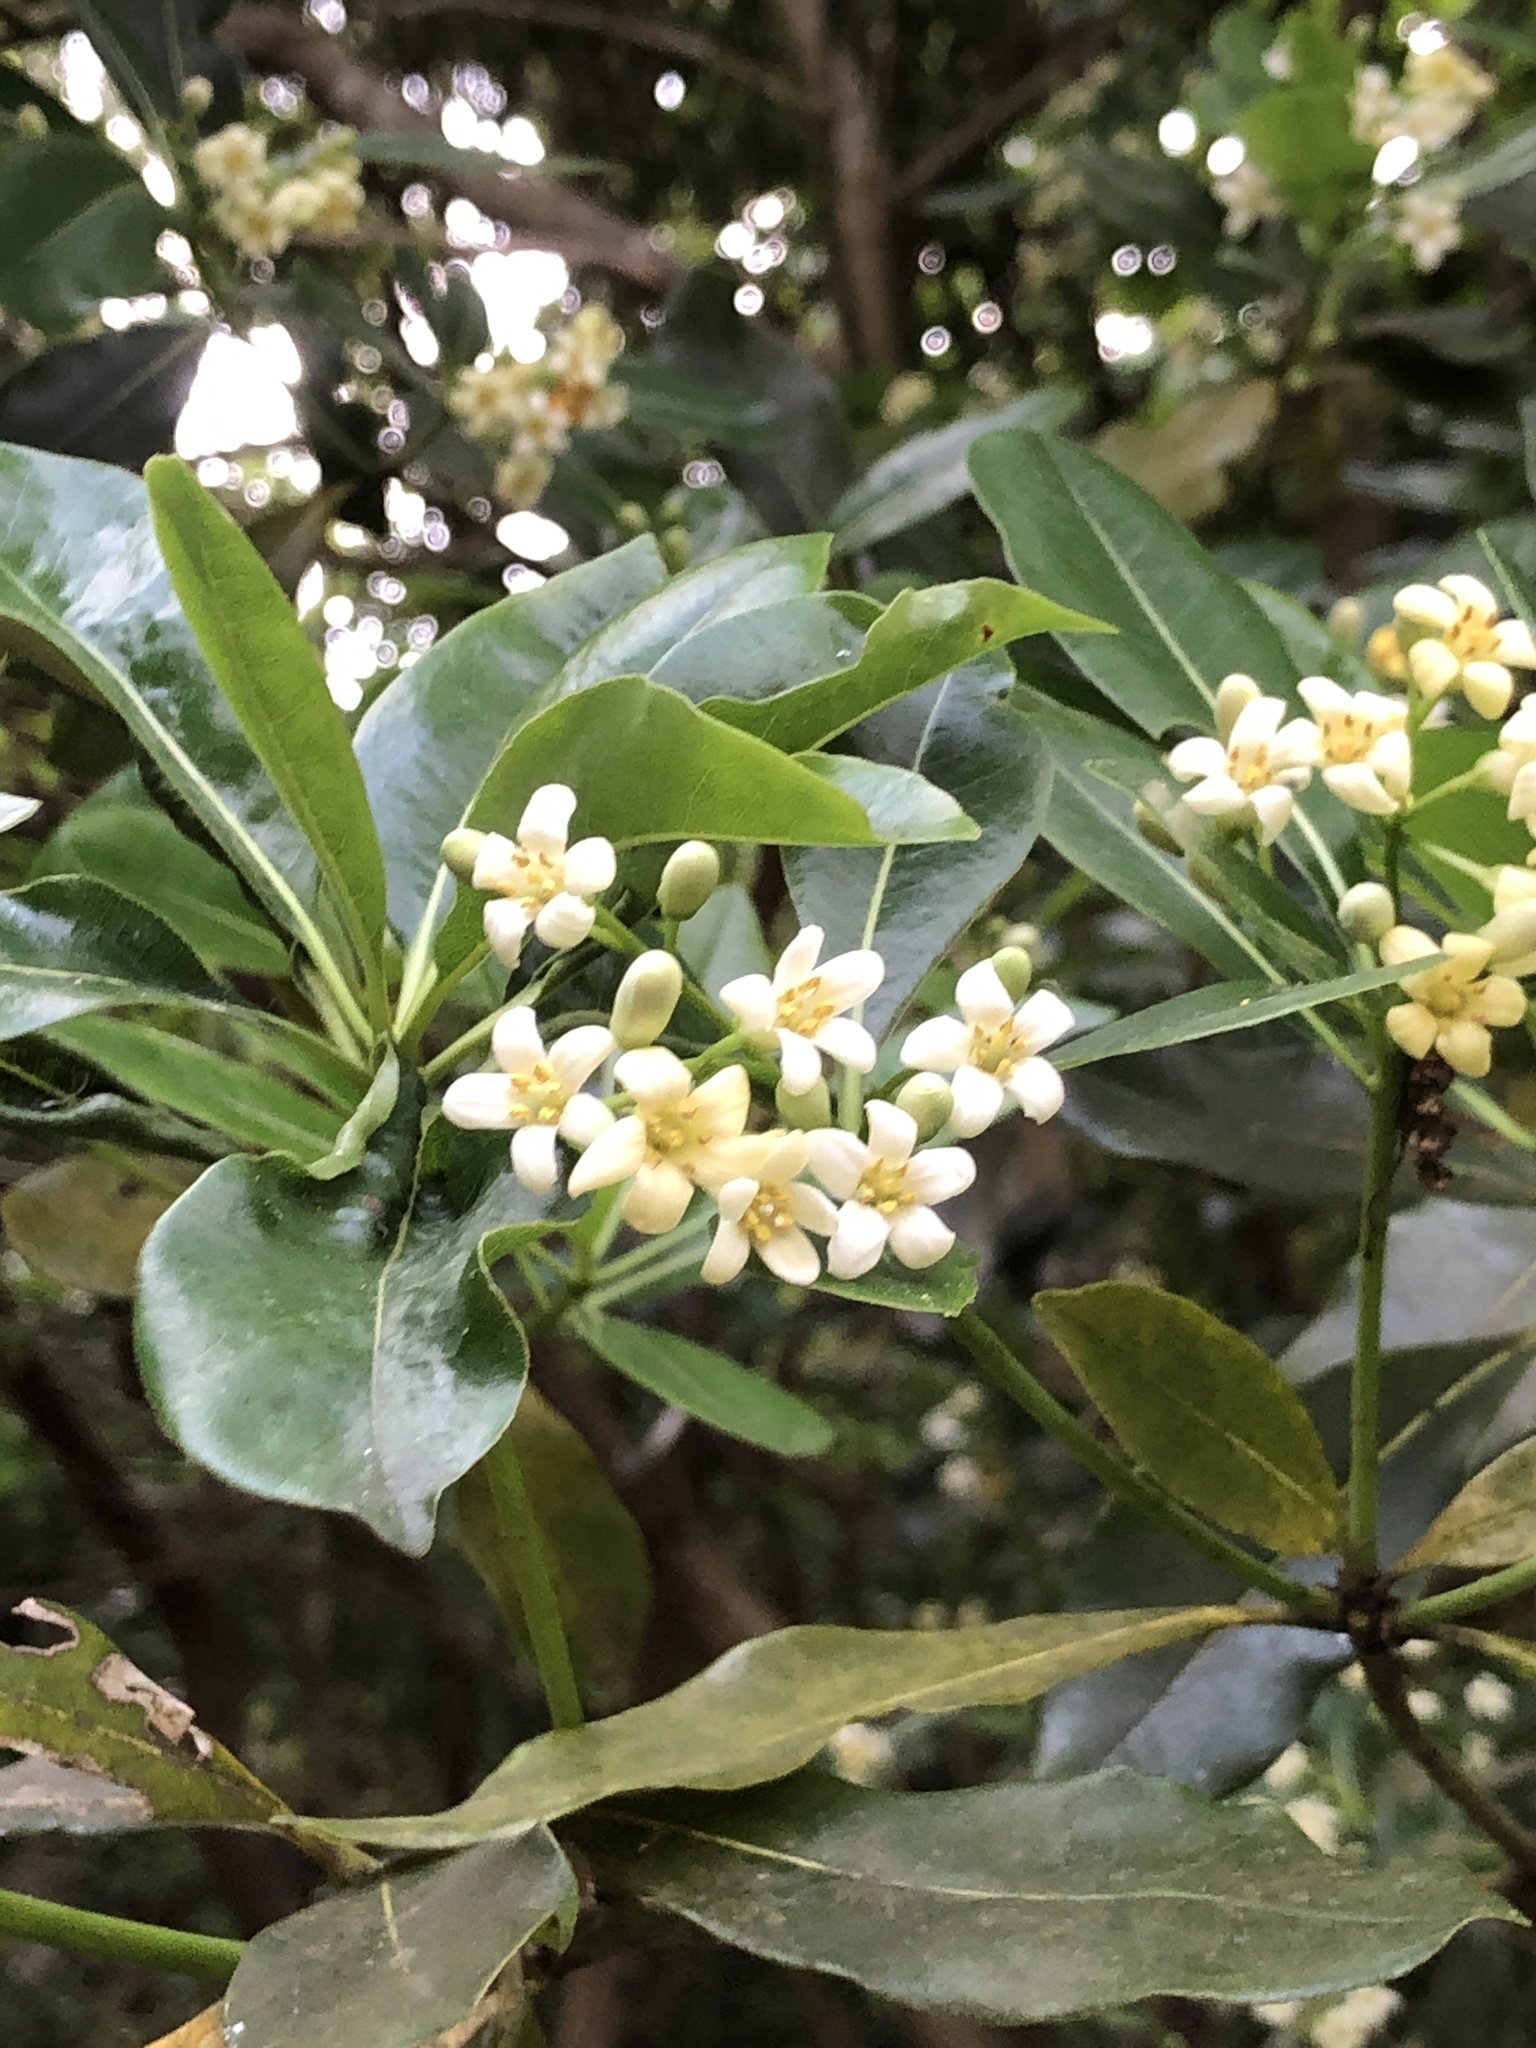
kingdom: Plantae
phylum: Tracheophyta
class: Magnoliopsida
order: Apiales
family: Pittosporaceae
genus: Pittosporum
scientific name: Pittosporum tobira
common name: Japanese cheesewood
